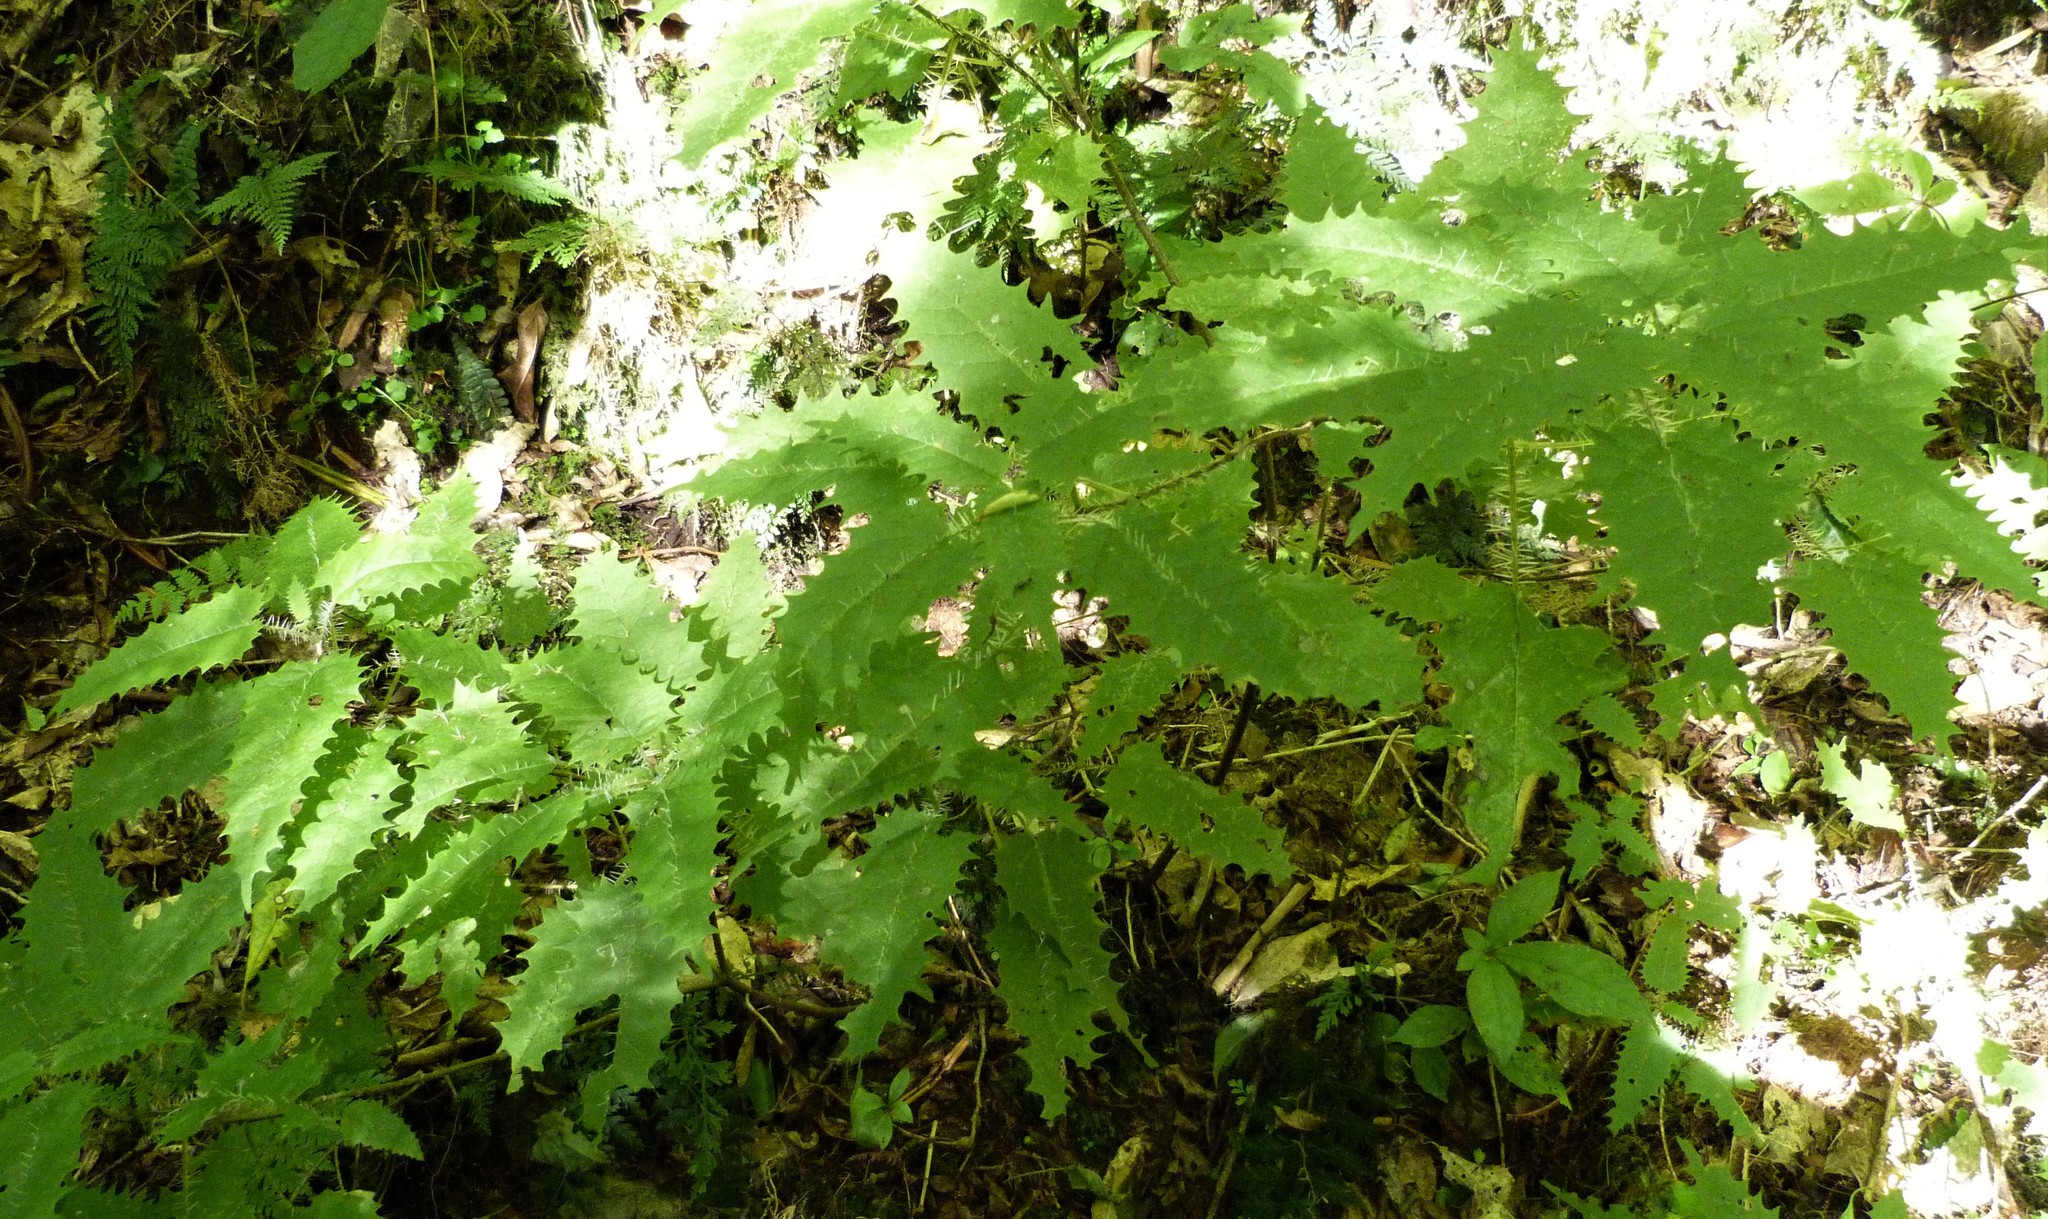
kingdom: Plantae
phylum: Tracheophyta
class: Magnoliopsida
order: Rosales
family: Urticaceae
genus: Urtica
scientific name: Urtica ferox
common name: Tree nettle
